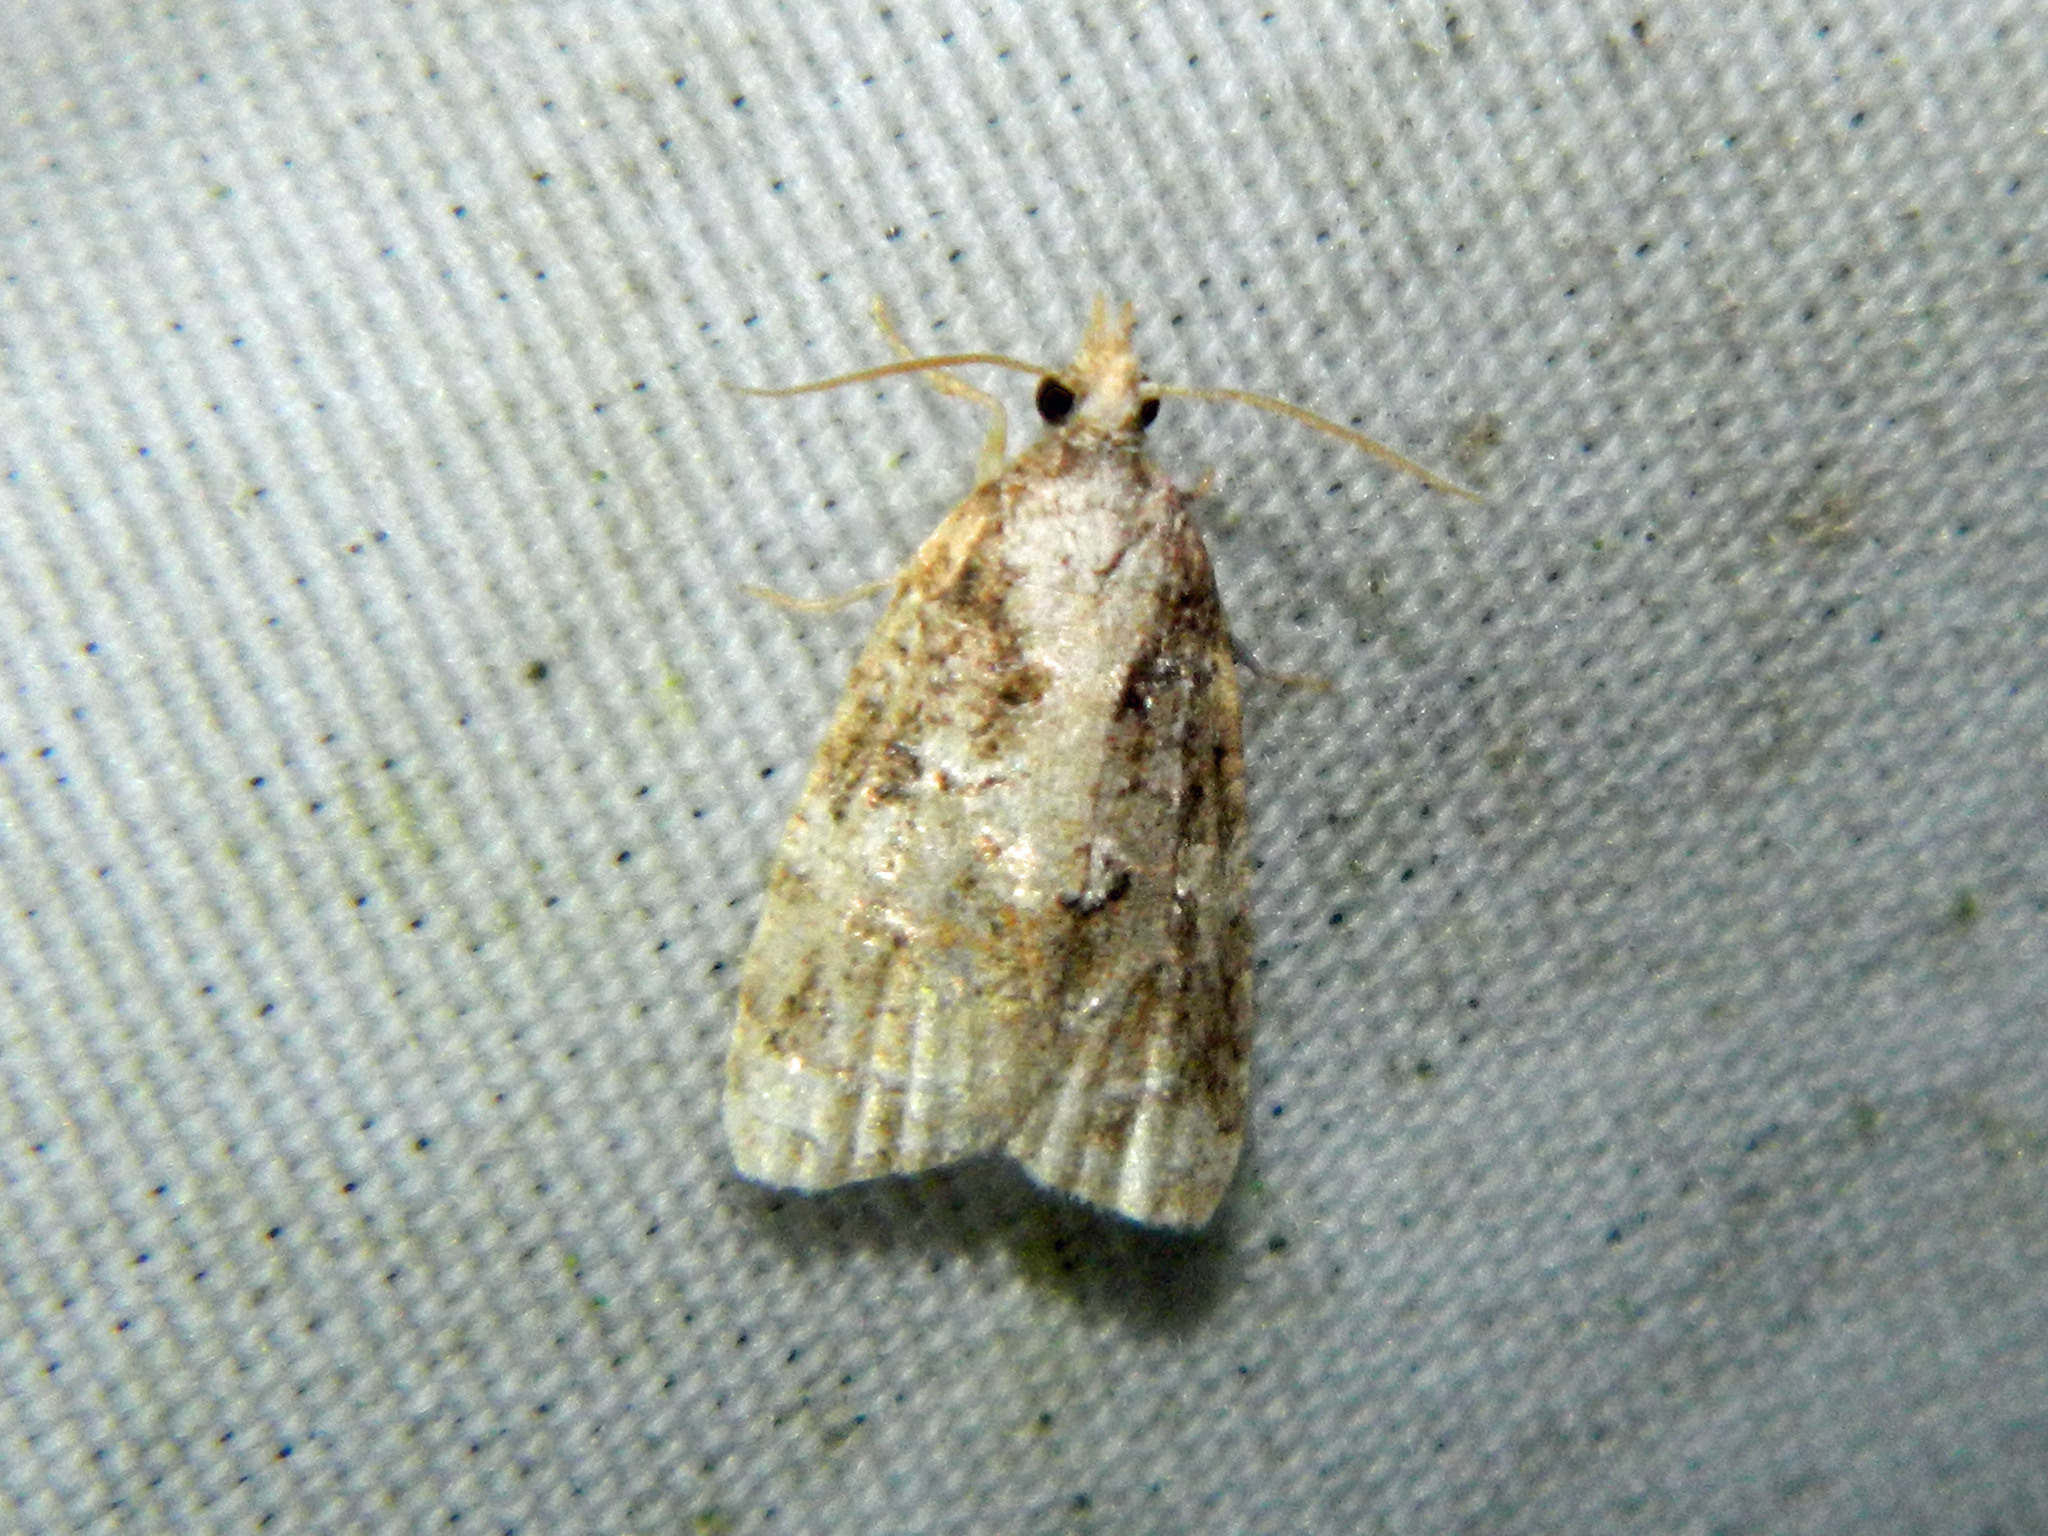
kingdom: Animalia
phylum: Arthropoda
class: Insecta
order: Lepidoptera
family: Tortricidae
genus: Platynota
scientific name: Platynota exasperatana
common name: Exasperating platynota moth
